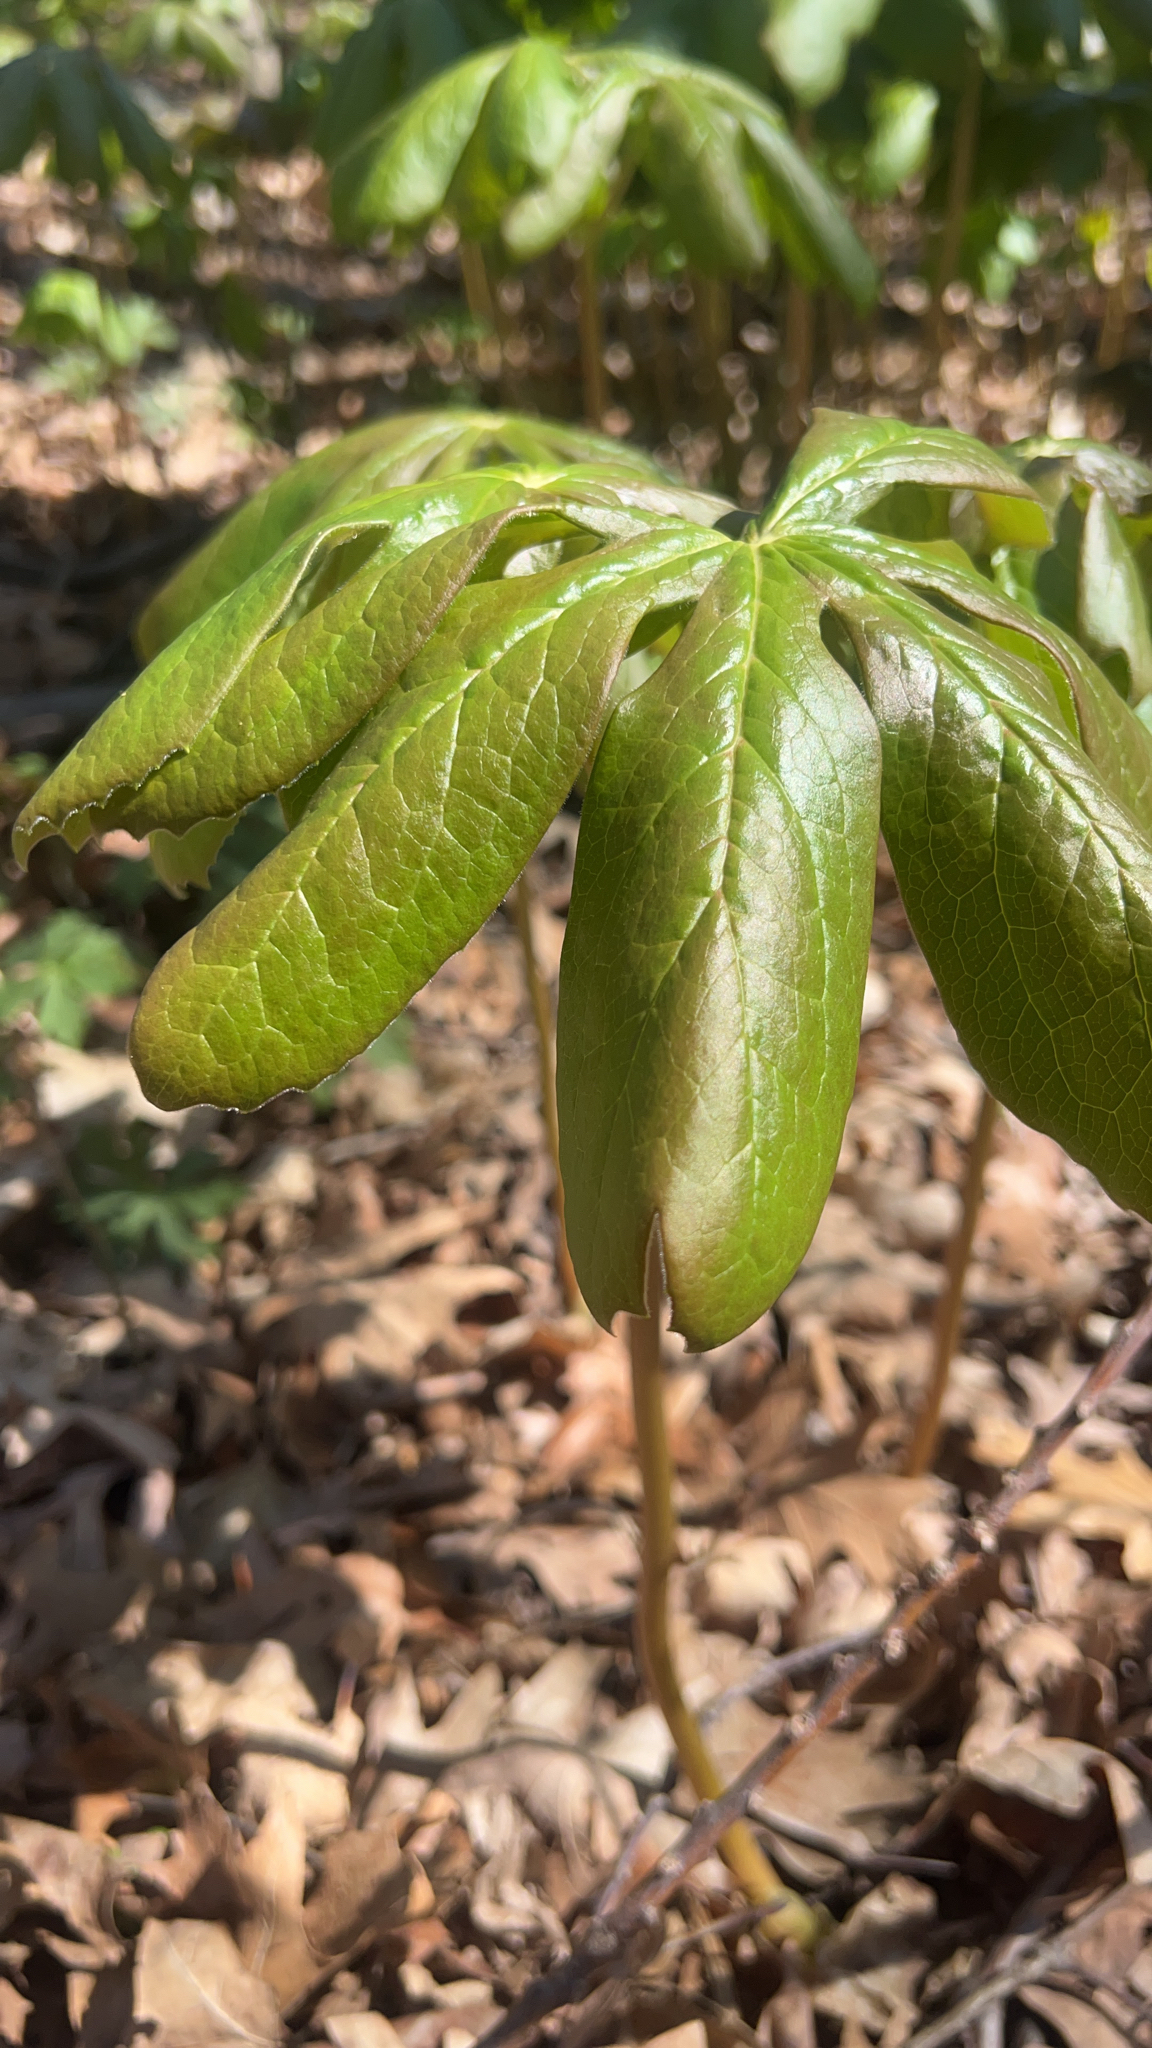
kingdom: Plantae
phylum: Tracheophyta
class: Magnoliopsida
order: Ranunculales
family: Berberidaceae
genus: Podophyllum
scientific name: Podophyllum peltatum
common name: Wild mandrake
